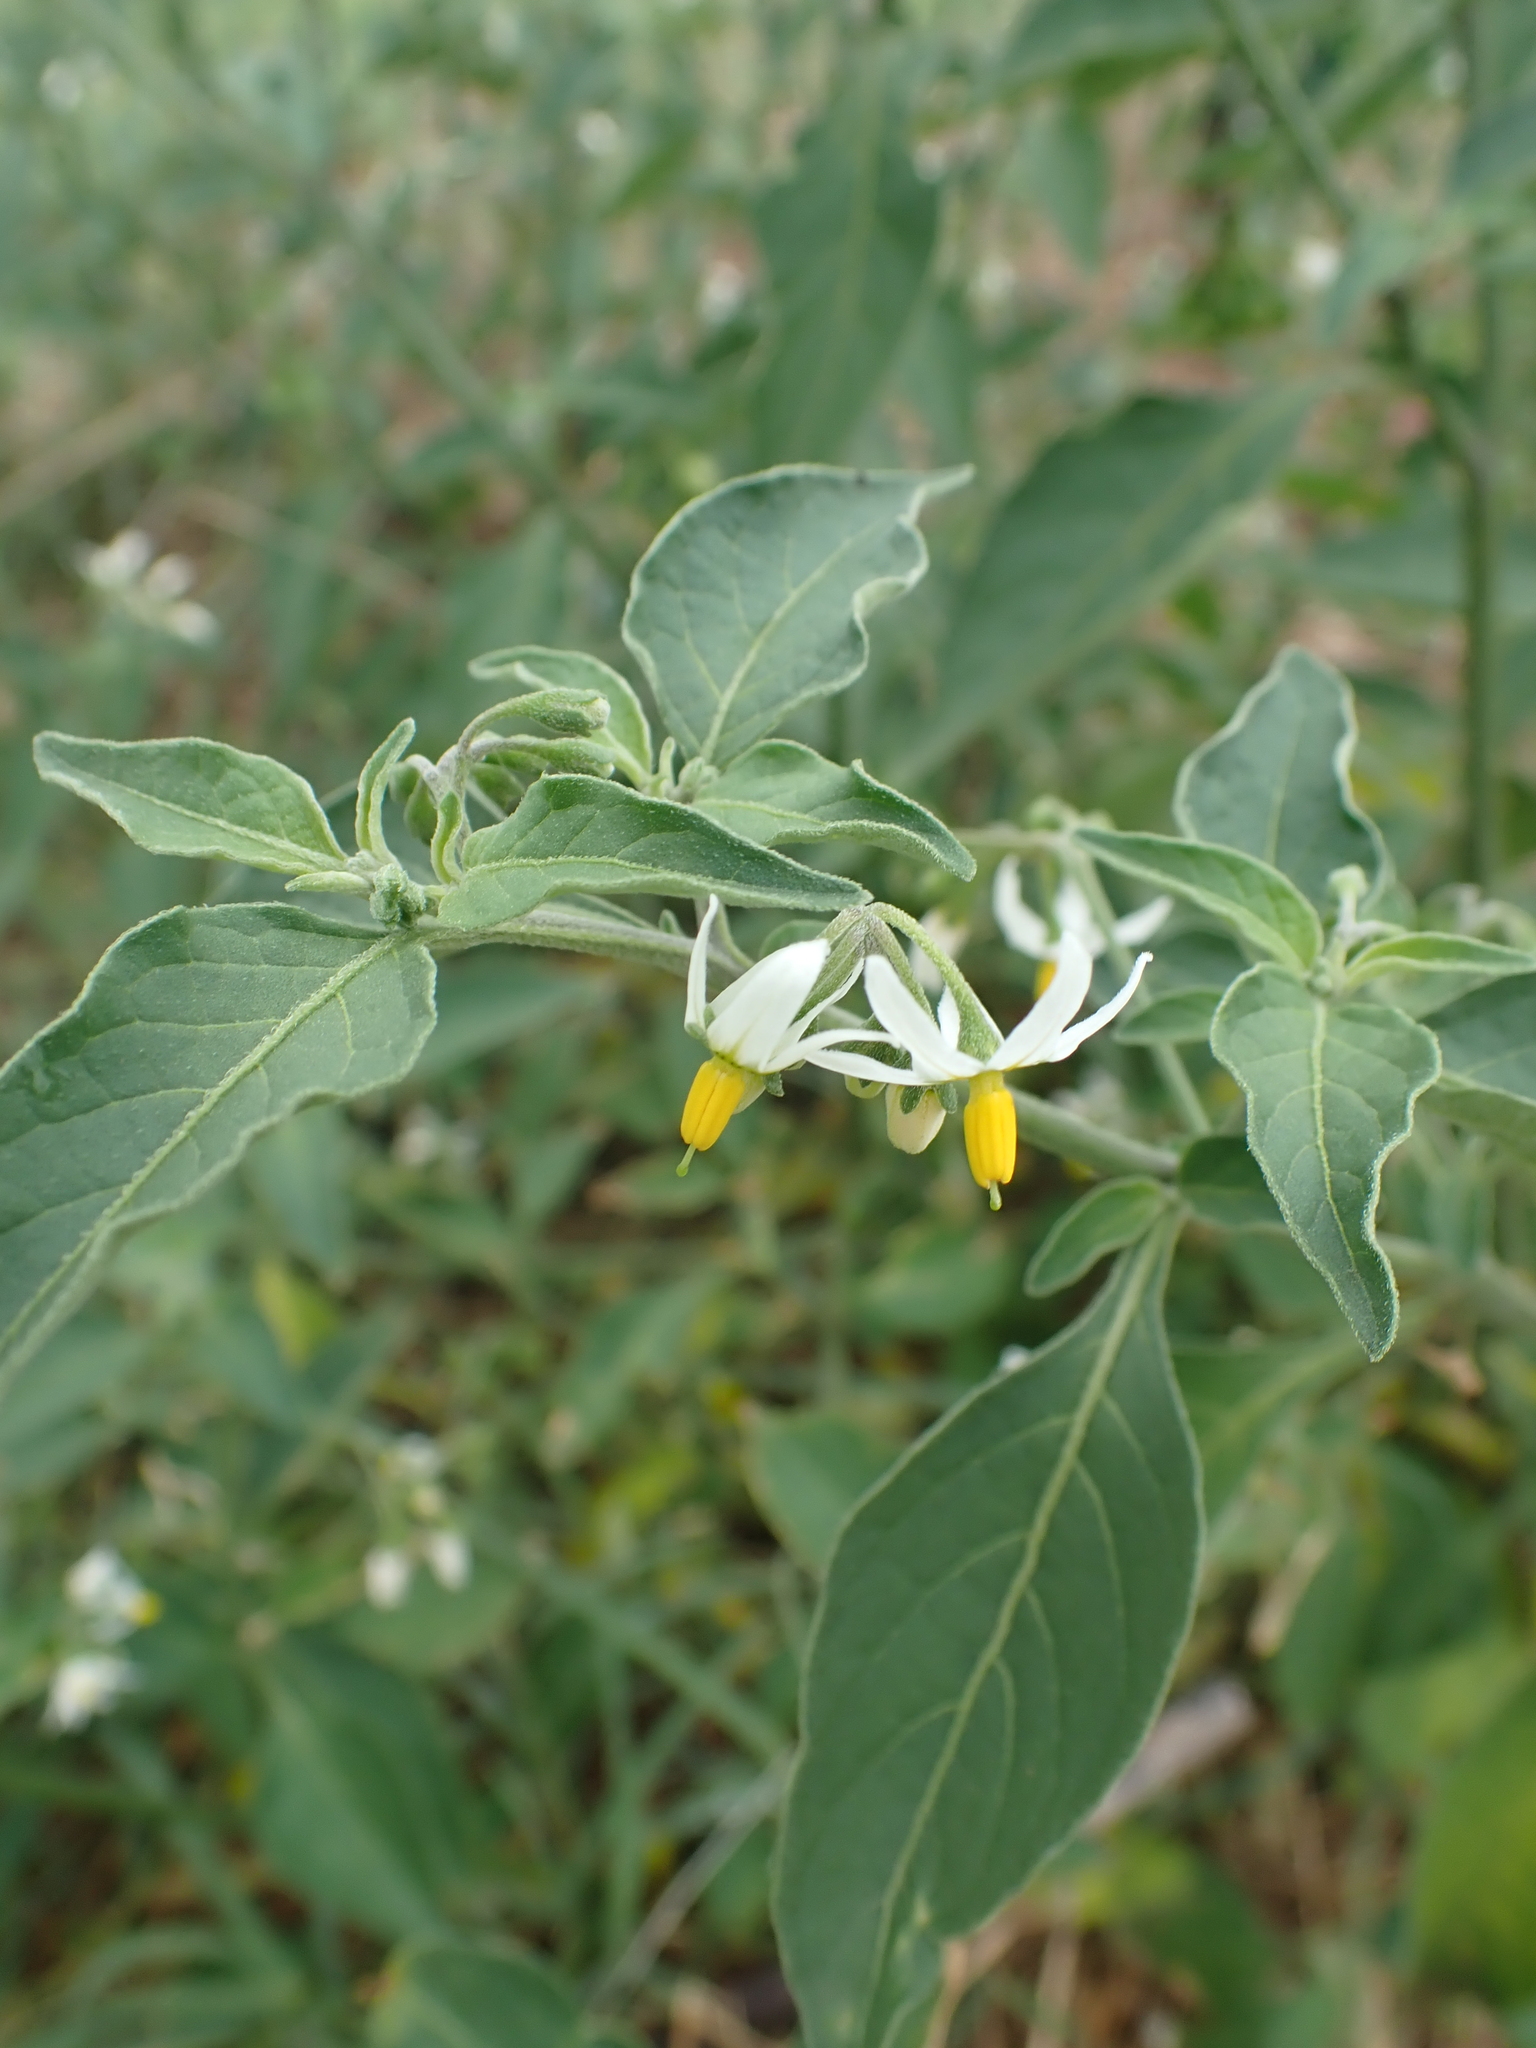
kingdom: Plantae
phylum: Tracheophyta
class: Magnoliopsida
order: Solanales
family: Solanaceae
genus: Solanum
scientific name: Solanum chenopodioides
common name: Tall nightshade
